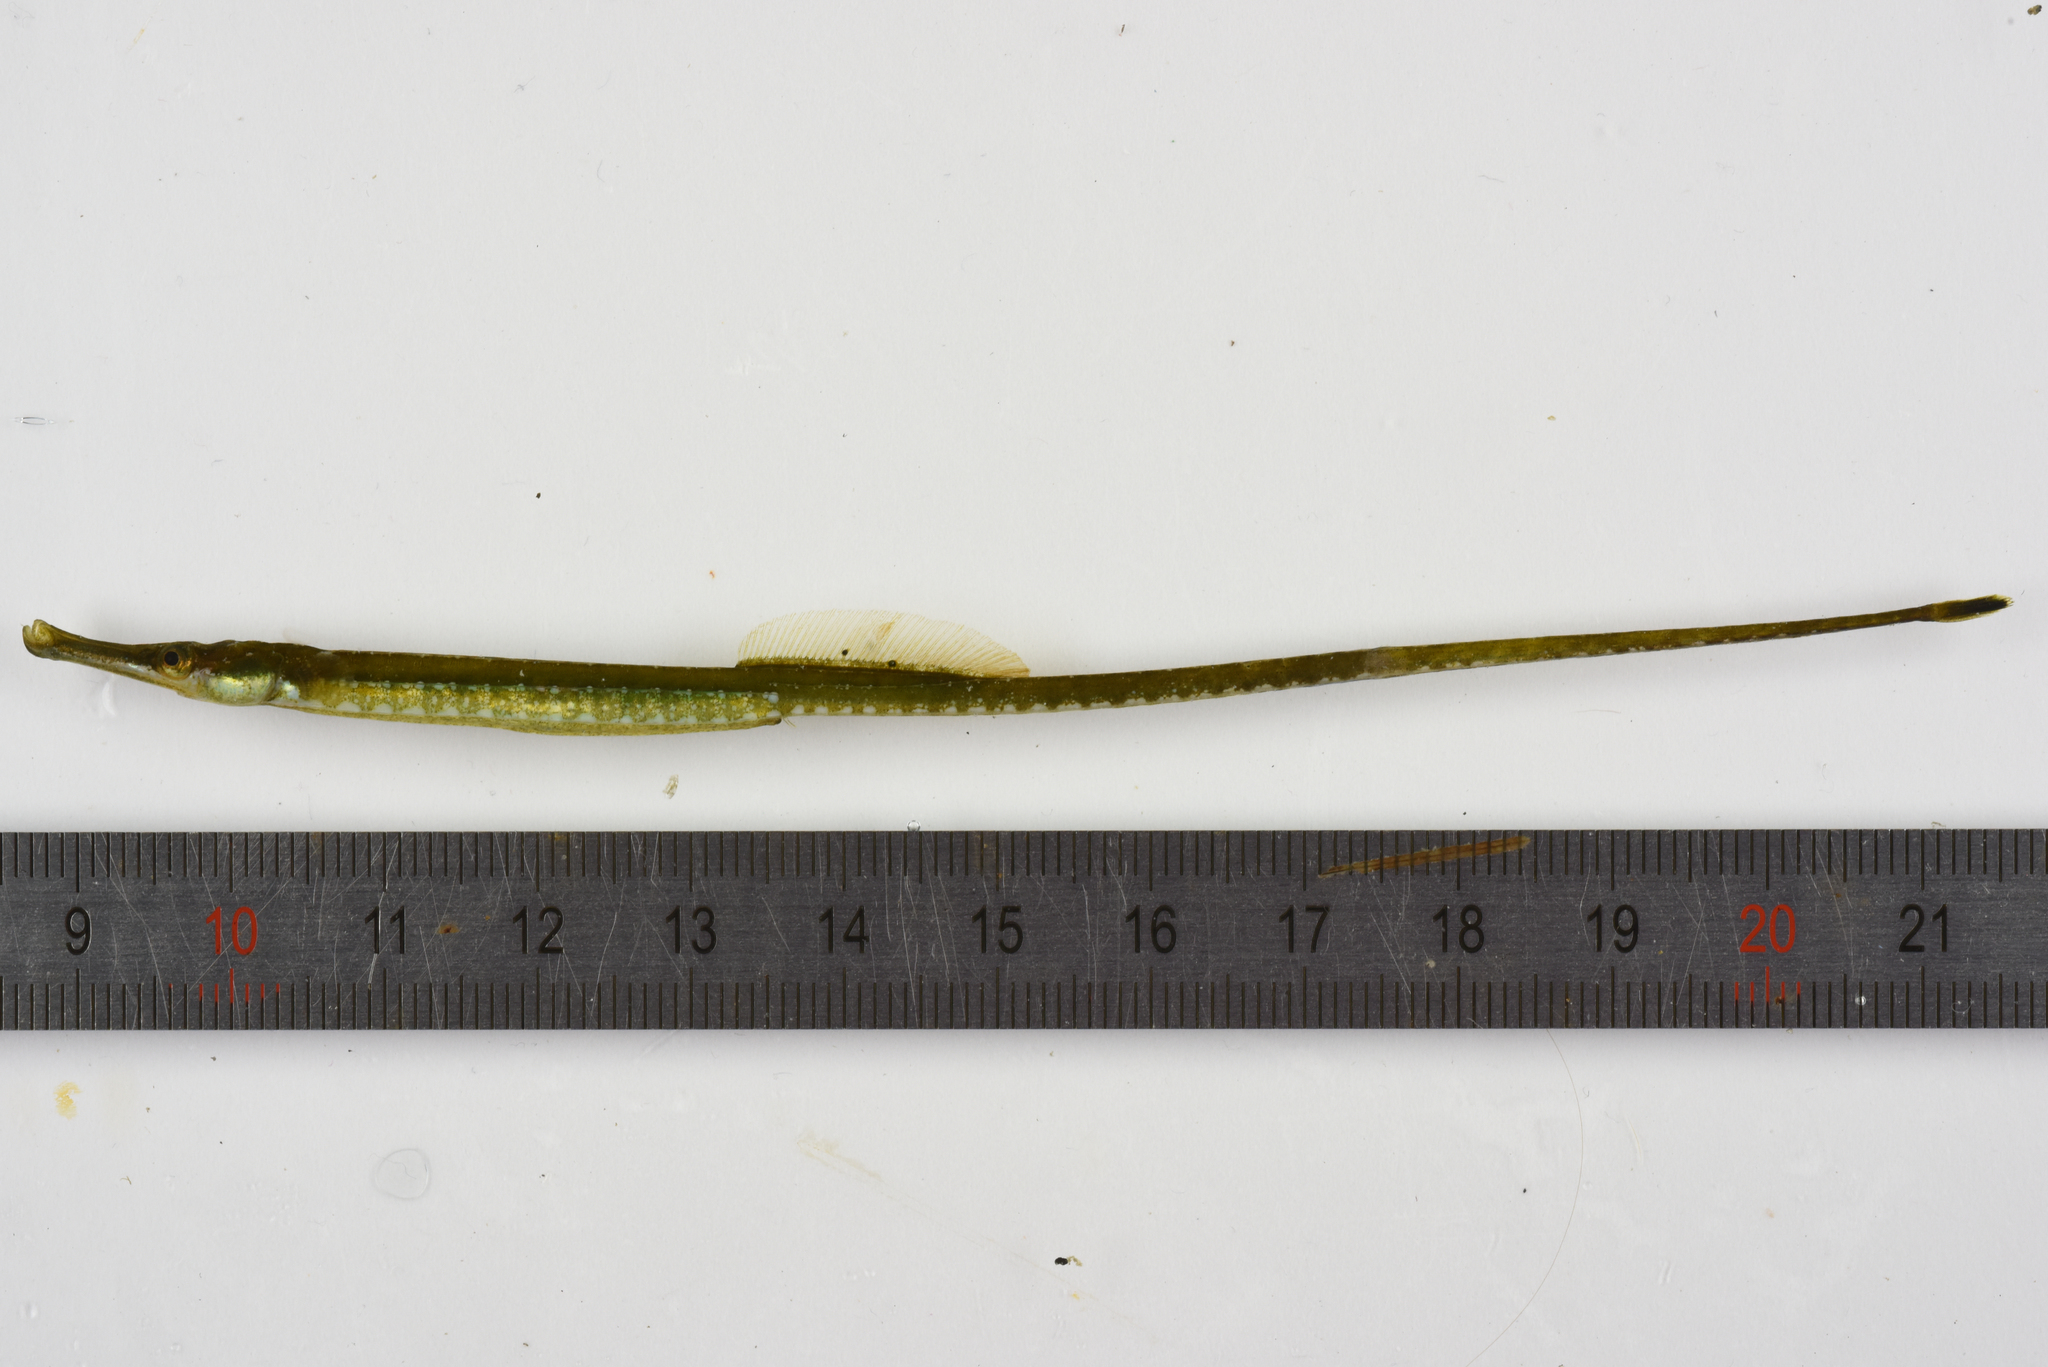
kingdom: Animalia
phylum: Chordata
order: Syngnathiformes
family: Syngnathidae
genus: Syngnathus
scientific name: Syngnathus rostellatus
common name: Nilsson's pipefish
